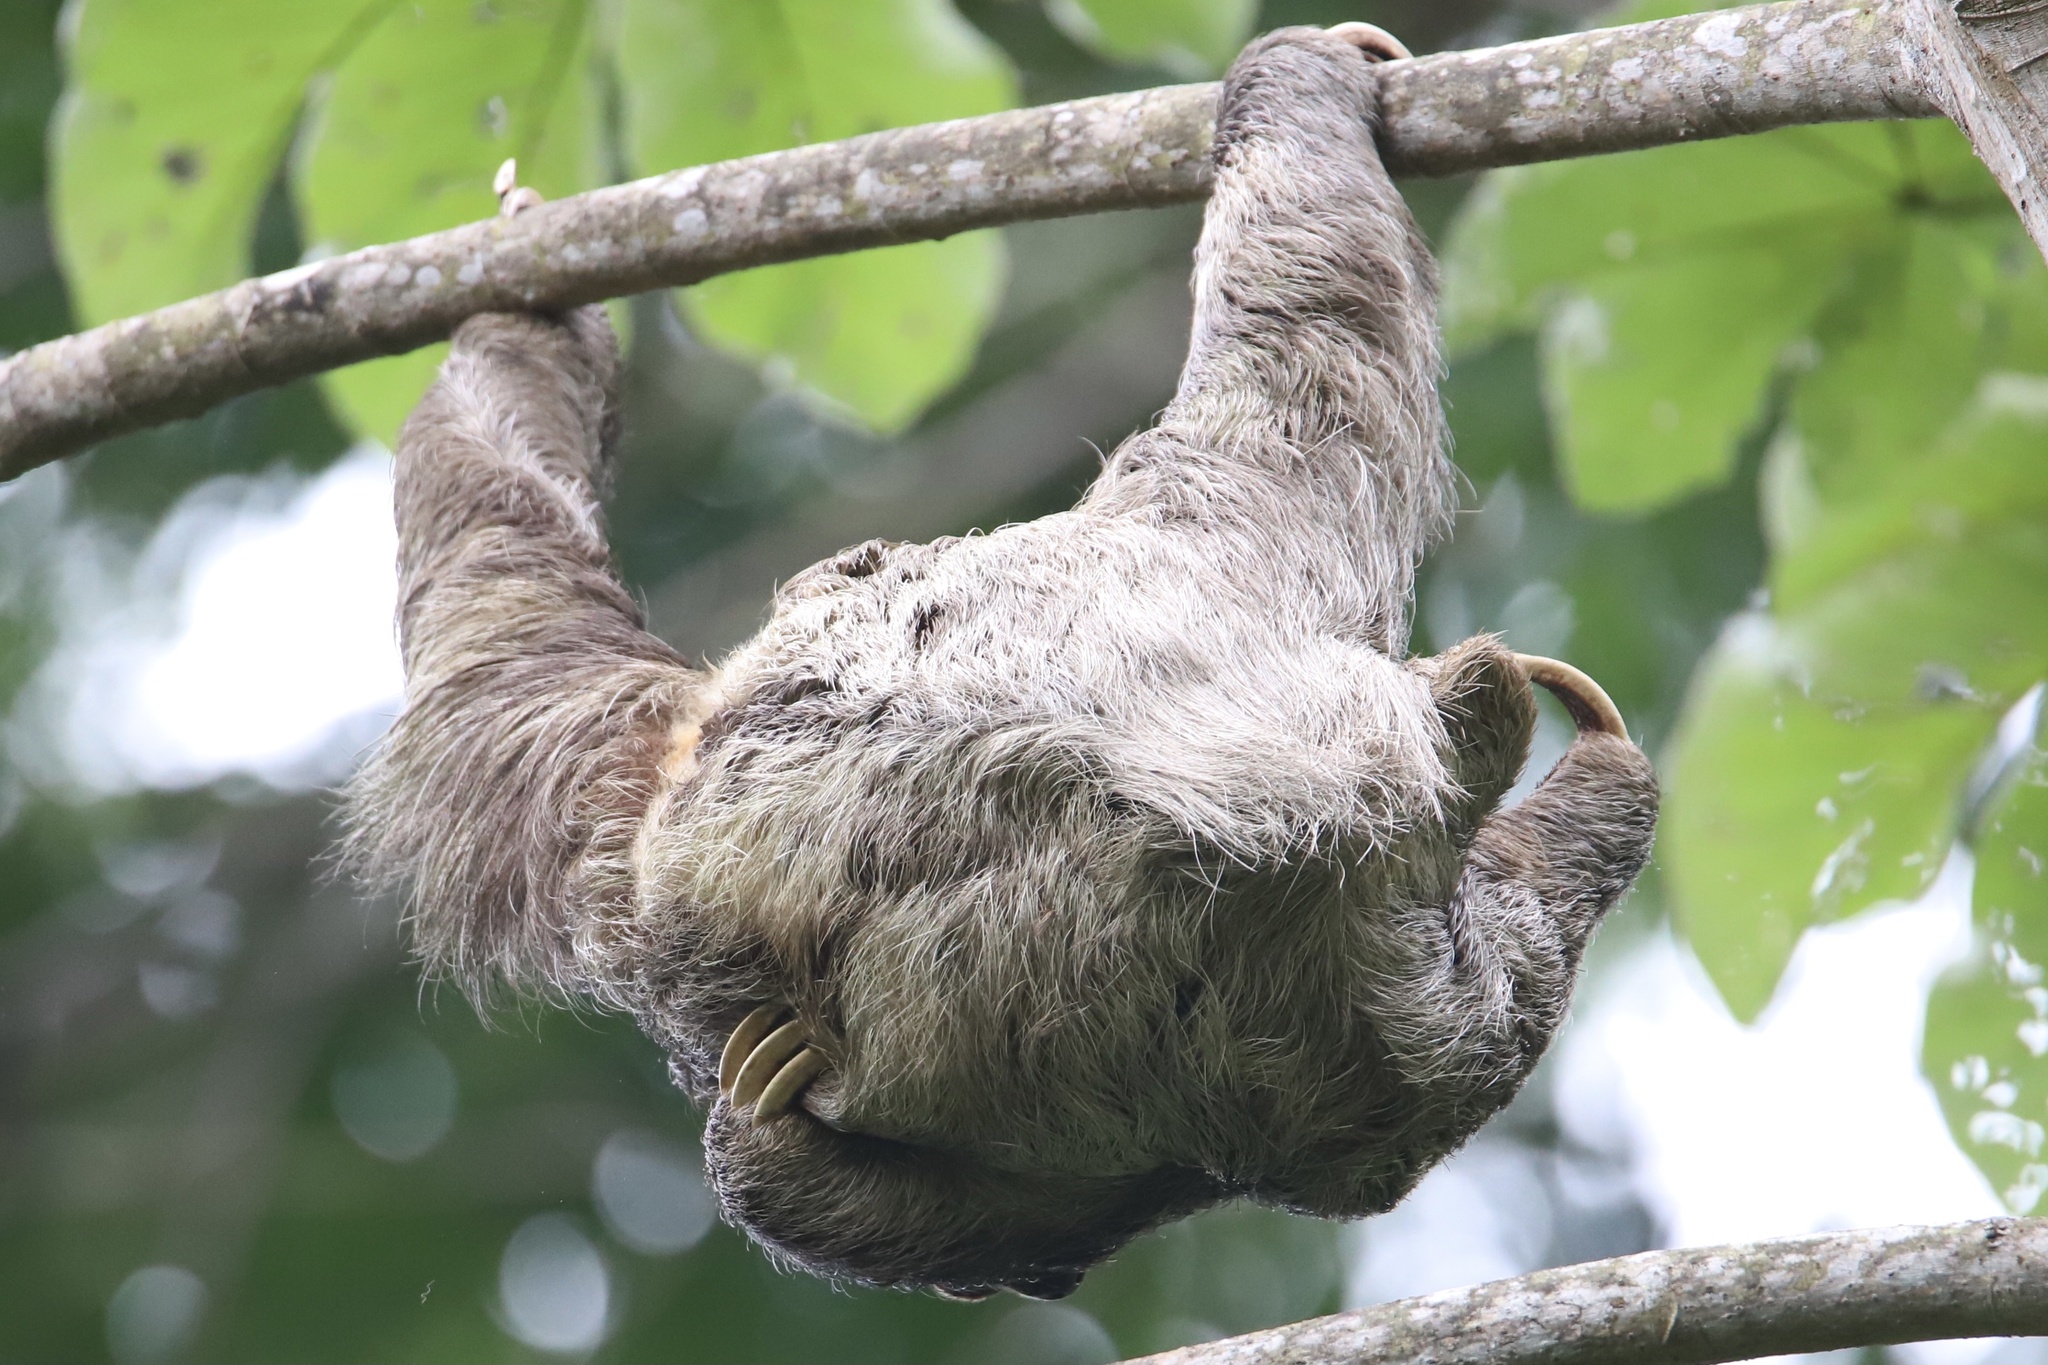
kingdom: Animalia
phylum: Chordata
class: Mammalia
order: Pilosa
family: Bradypodidae
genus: Bradypus
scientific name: Bradypus variegatus
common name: Brown-throated three-toed sloth
